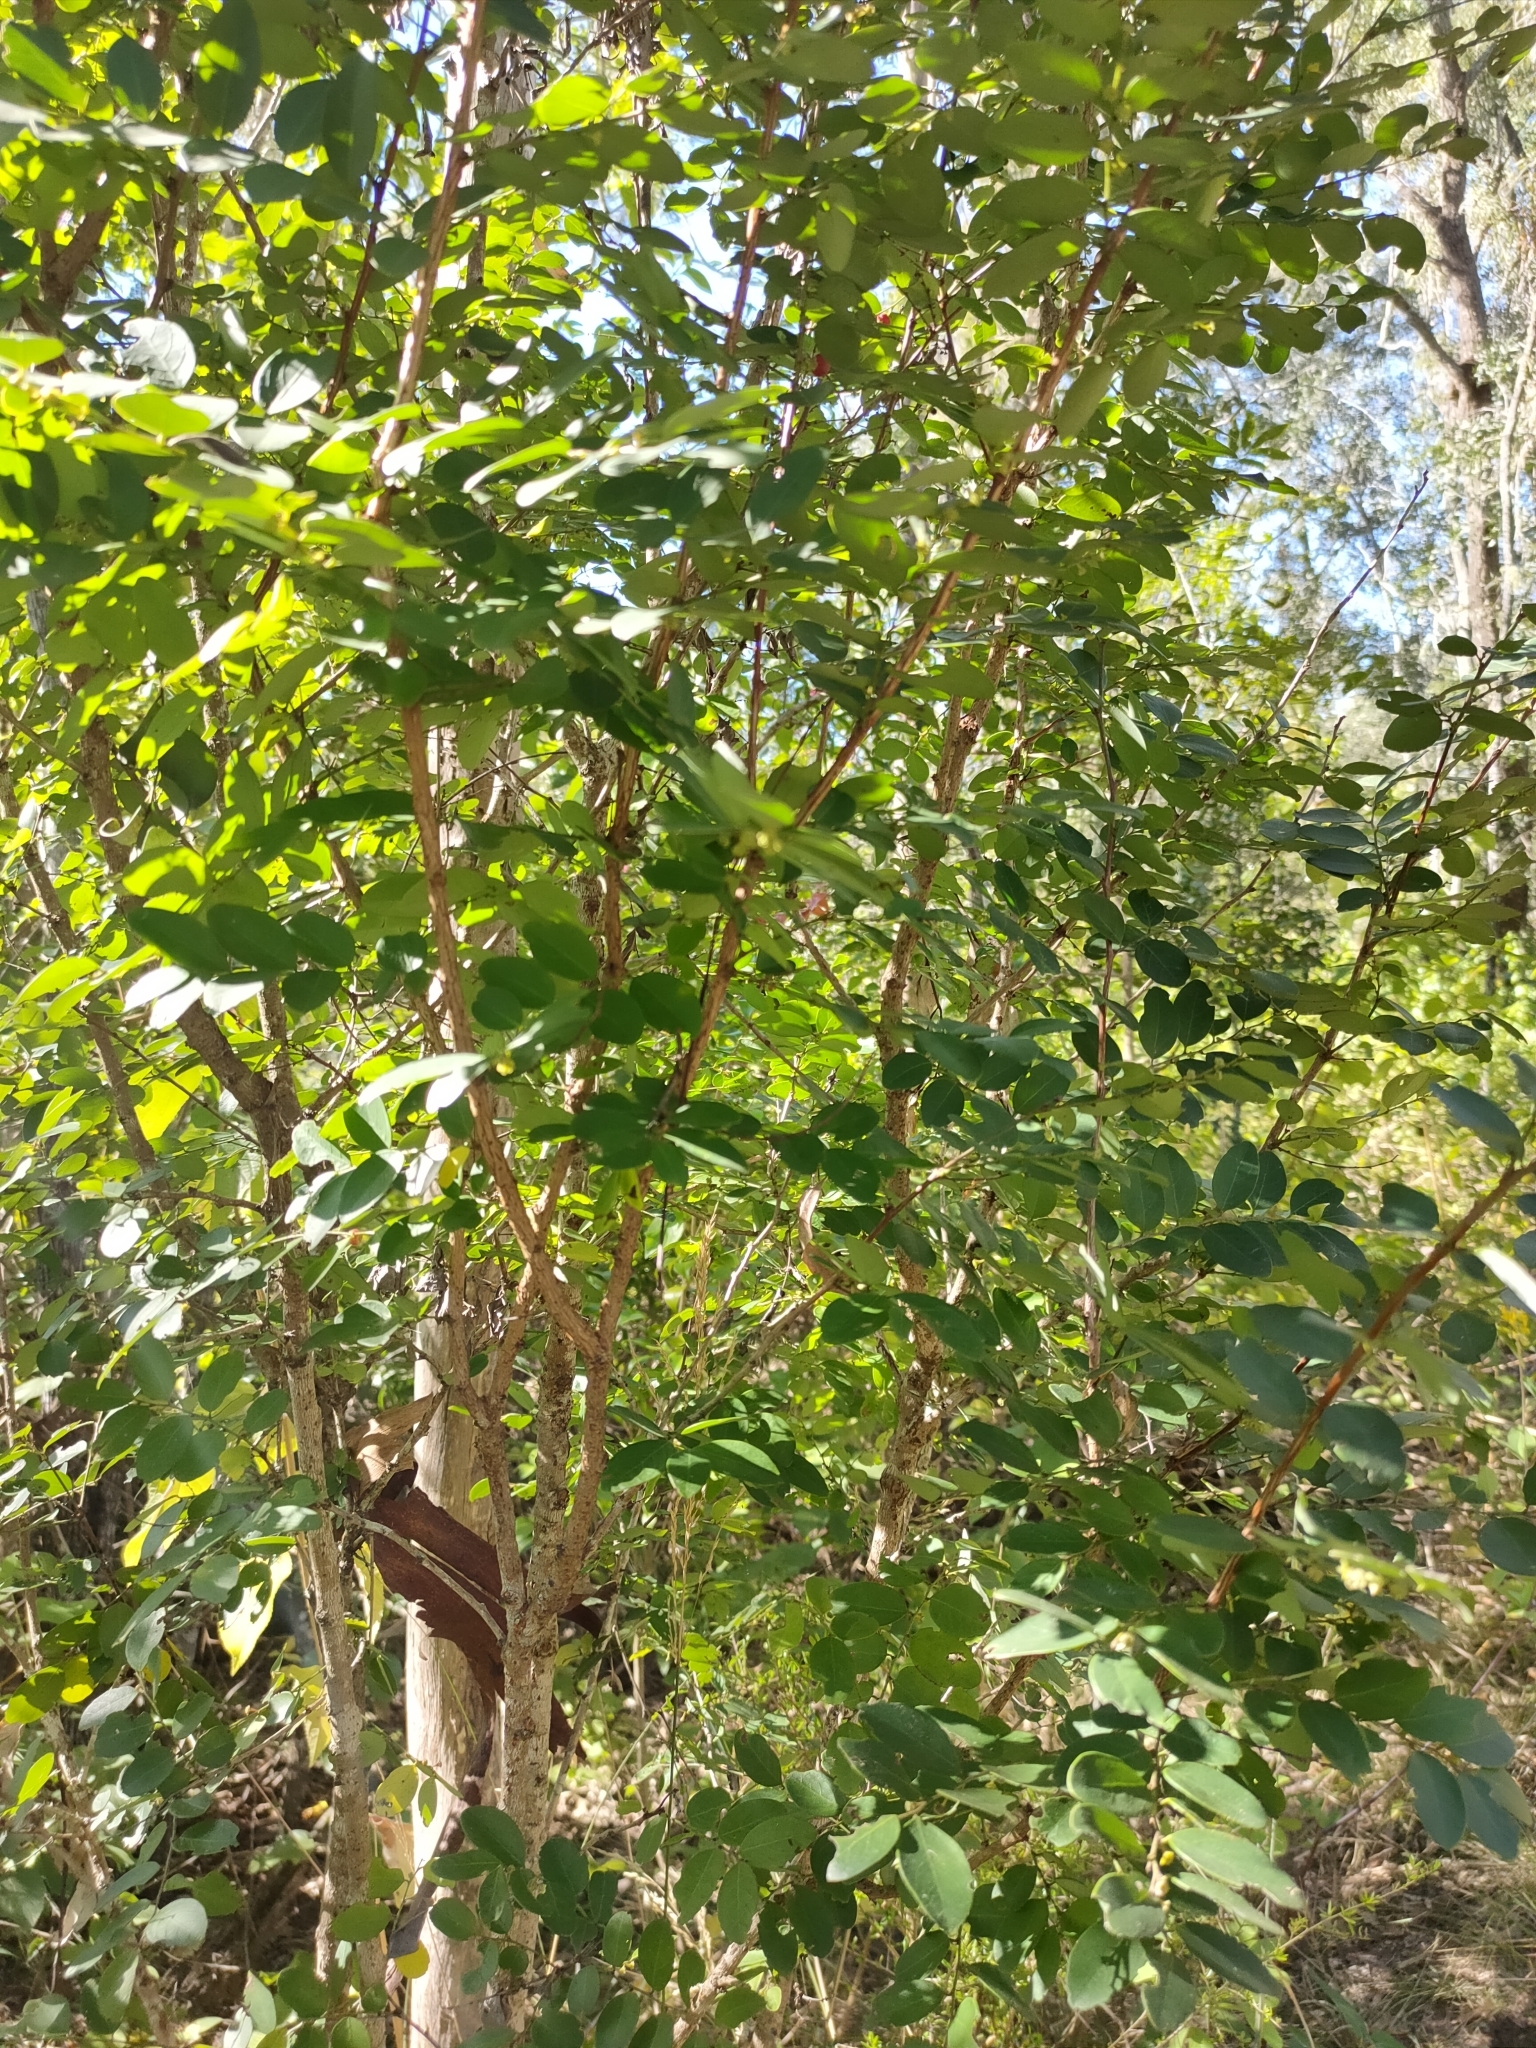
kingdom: Plantae
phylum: Tracheophyta
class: Magnoliopsida
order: Malpighiales
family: Phyllanthaceae
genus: Breynia
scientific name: Breynia oblongifolia
